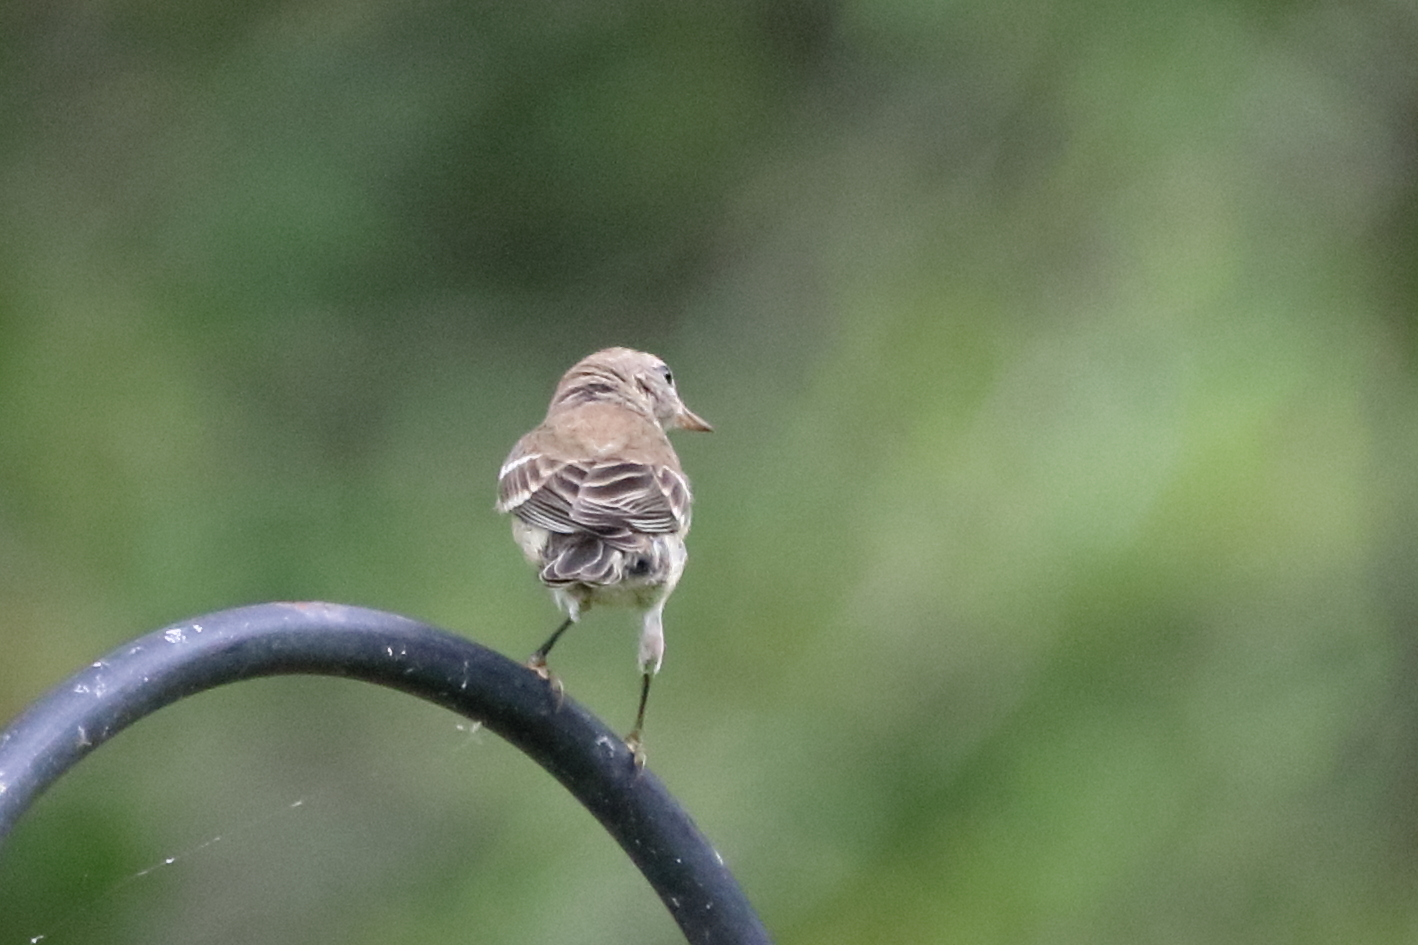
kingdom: Animalia
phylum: Chordata
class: Aves
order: Passeriformes
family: Parulidae
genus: Setophaga
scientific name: Setophaga pinus
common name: Pine warbler
